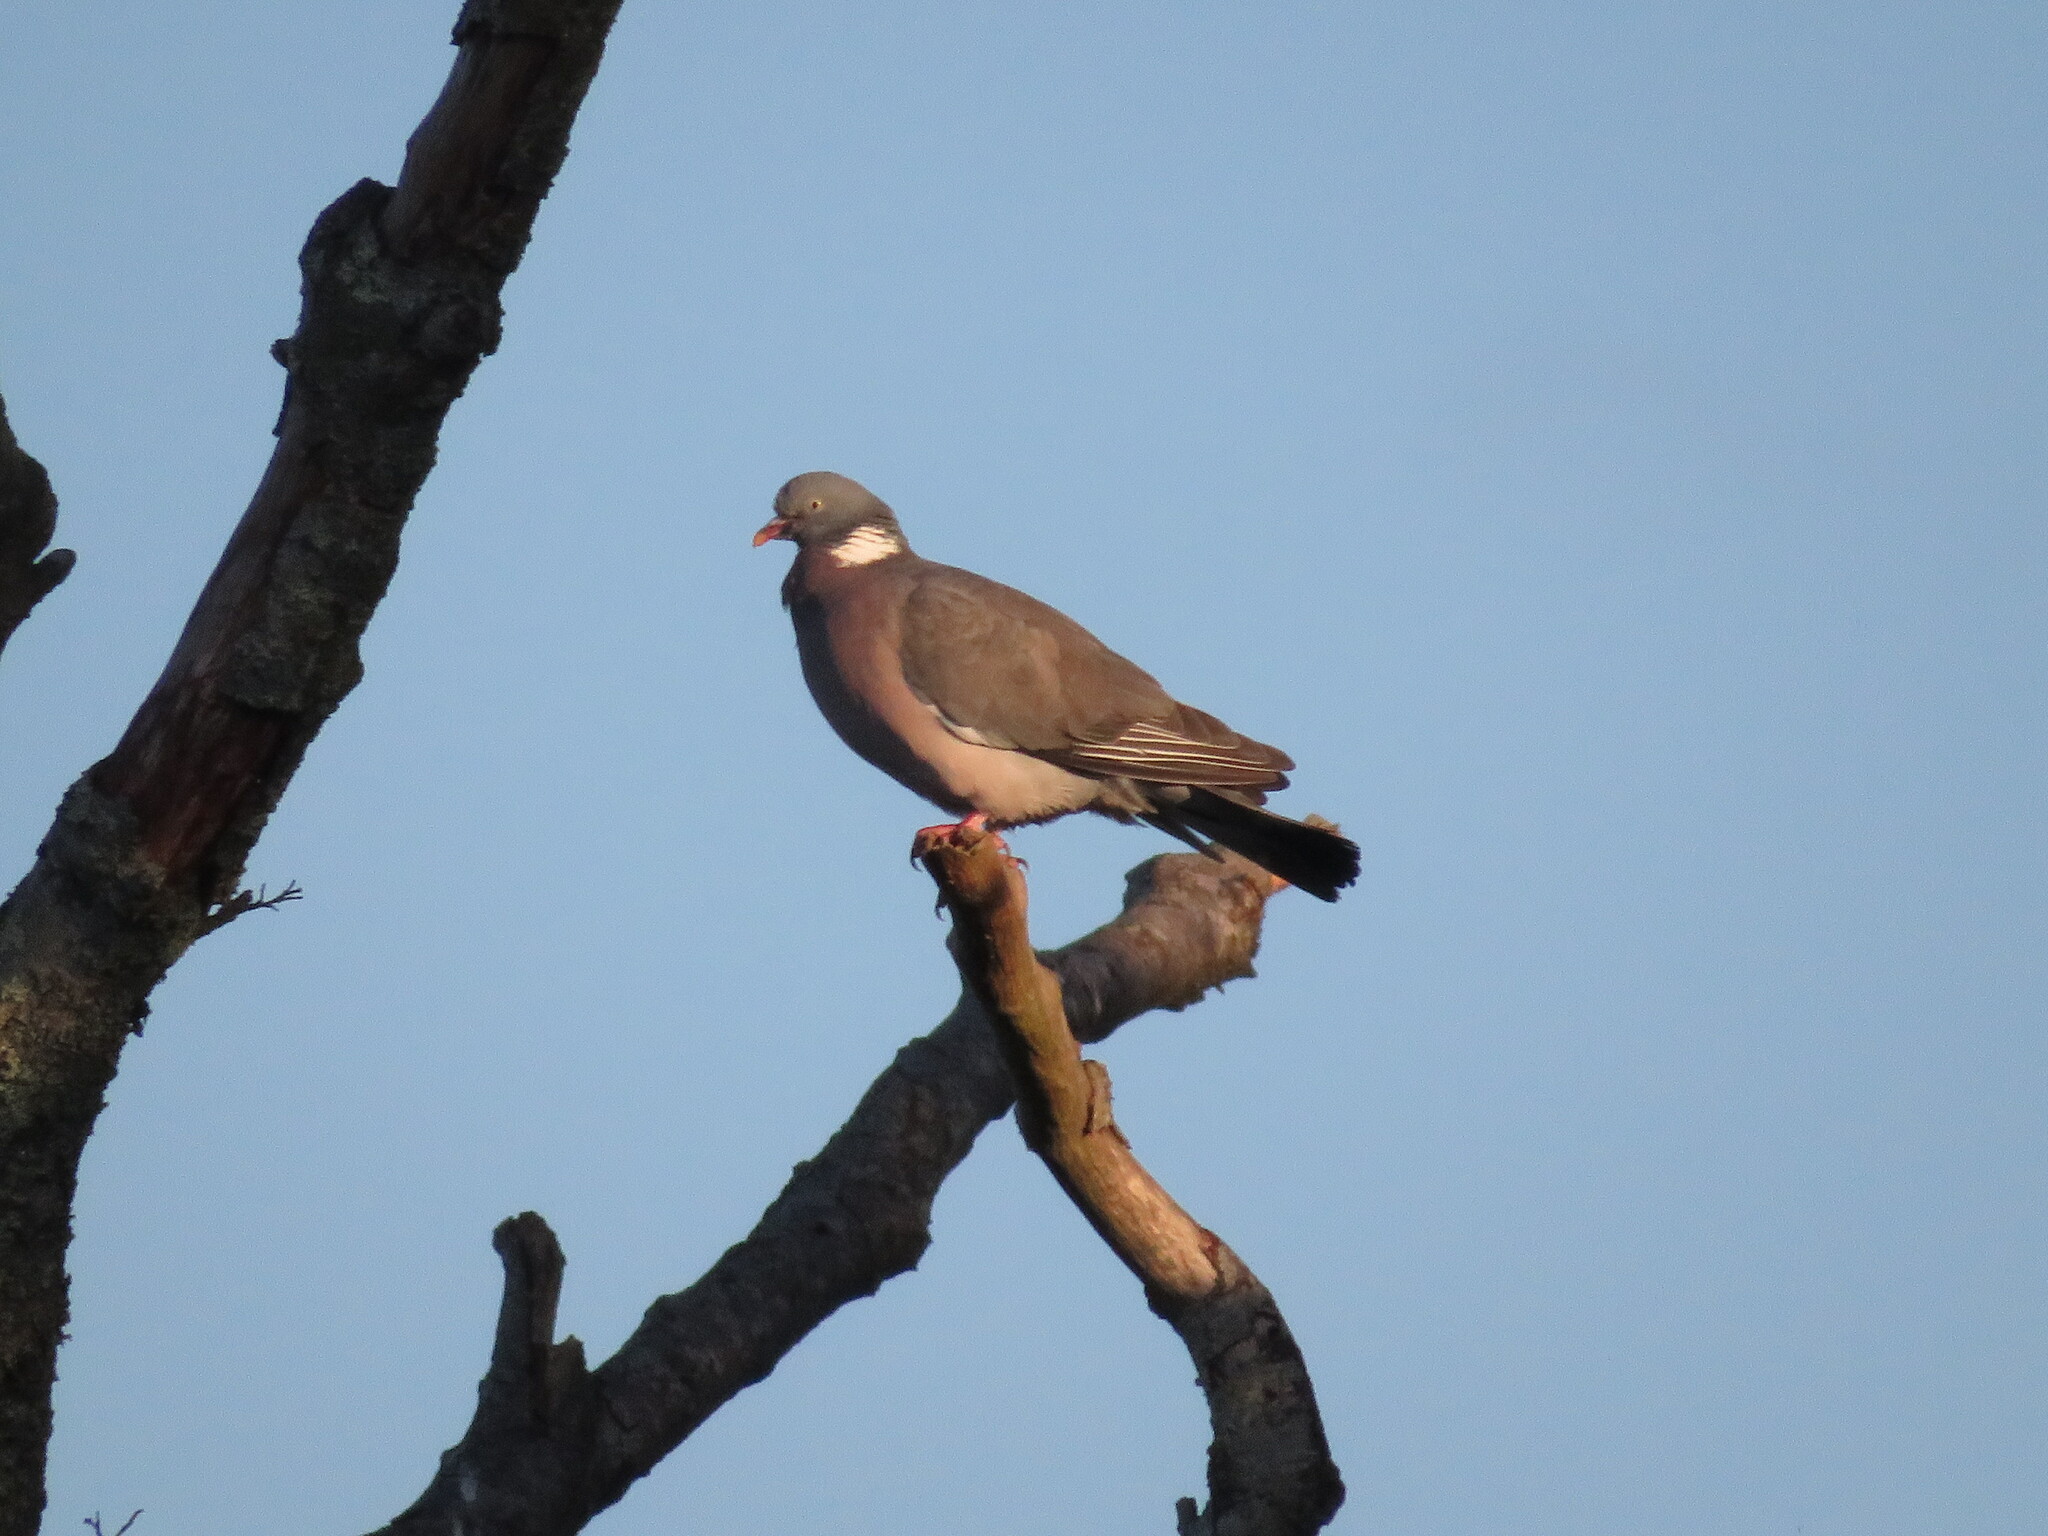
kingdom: Animalia
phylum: Chordata
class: Aves
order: Columbiformes
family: Columbidae
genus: Columba
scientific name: Columba palumbus
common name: Common wood pigeon
